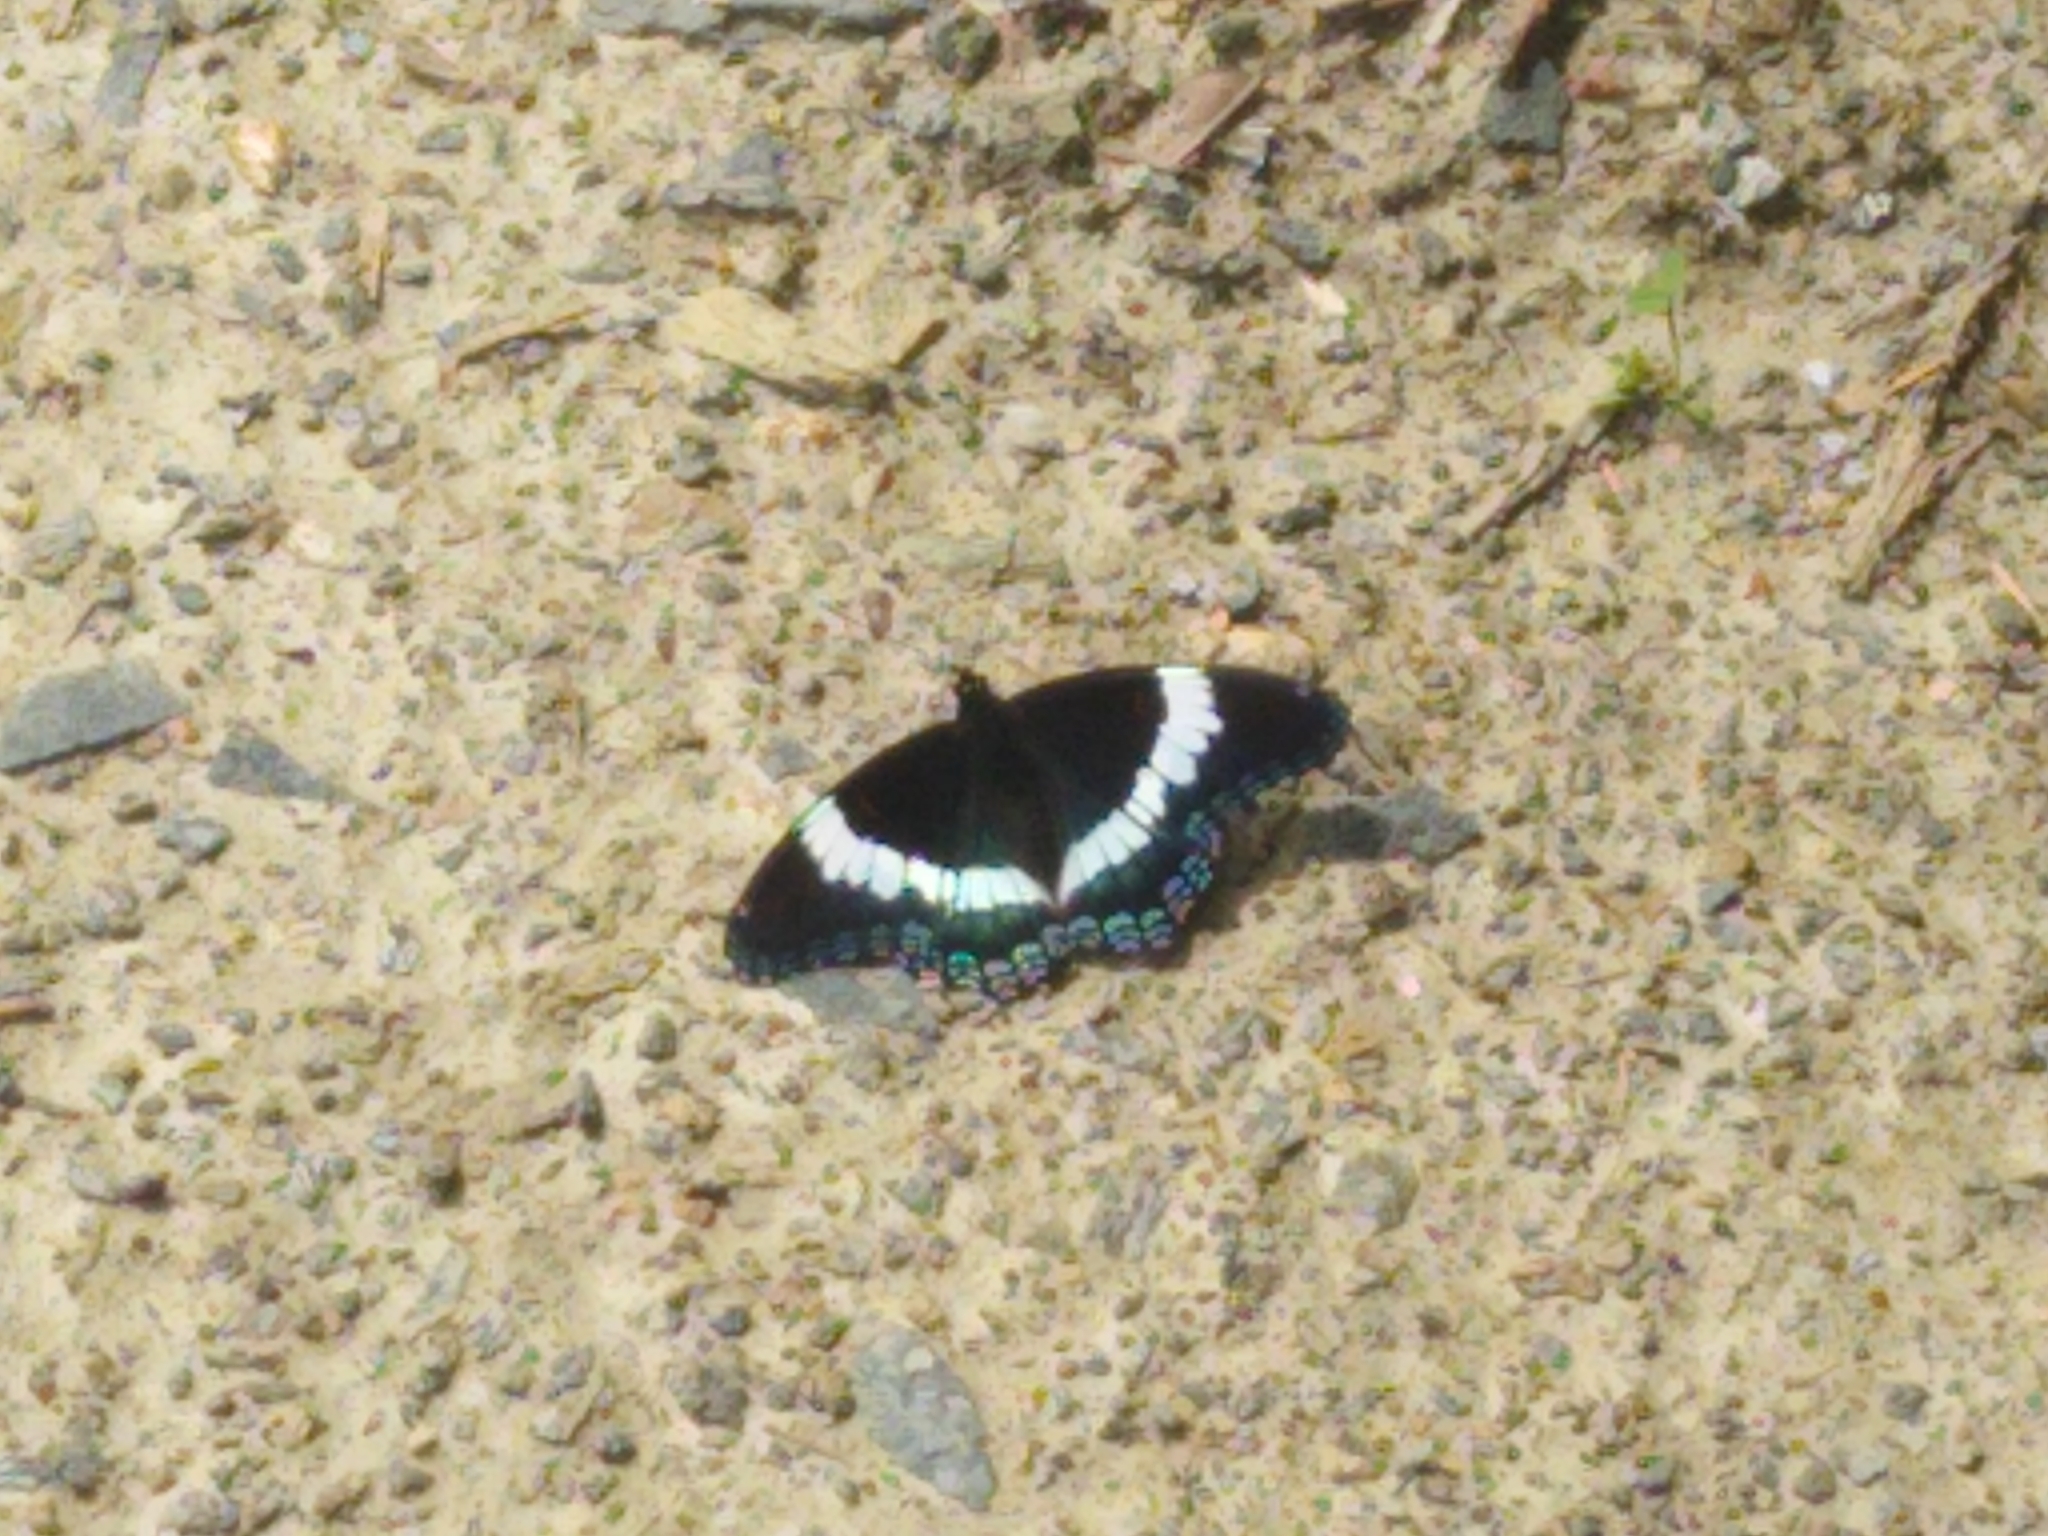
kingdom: Animalia
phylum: Arthropoda
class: Insecta
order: Lepidoptera
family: Nymphalidae
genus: Limenitis
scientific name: Limenitis arthemis
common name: Red-spotted admiral
